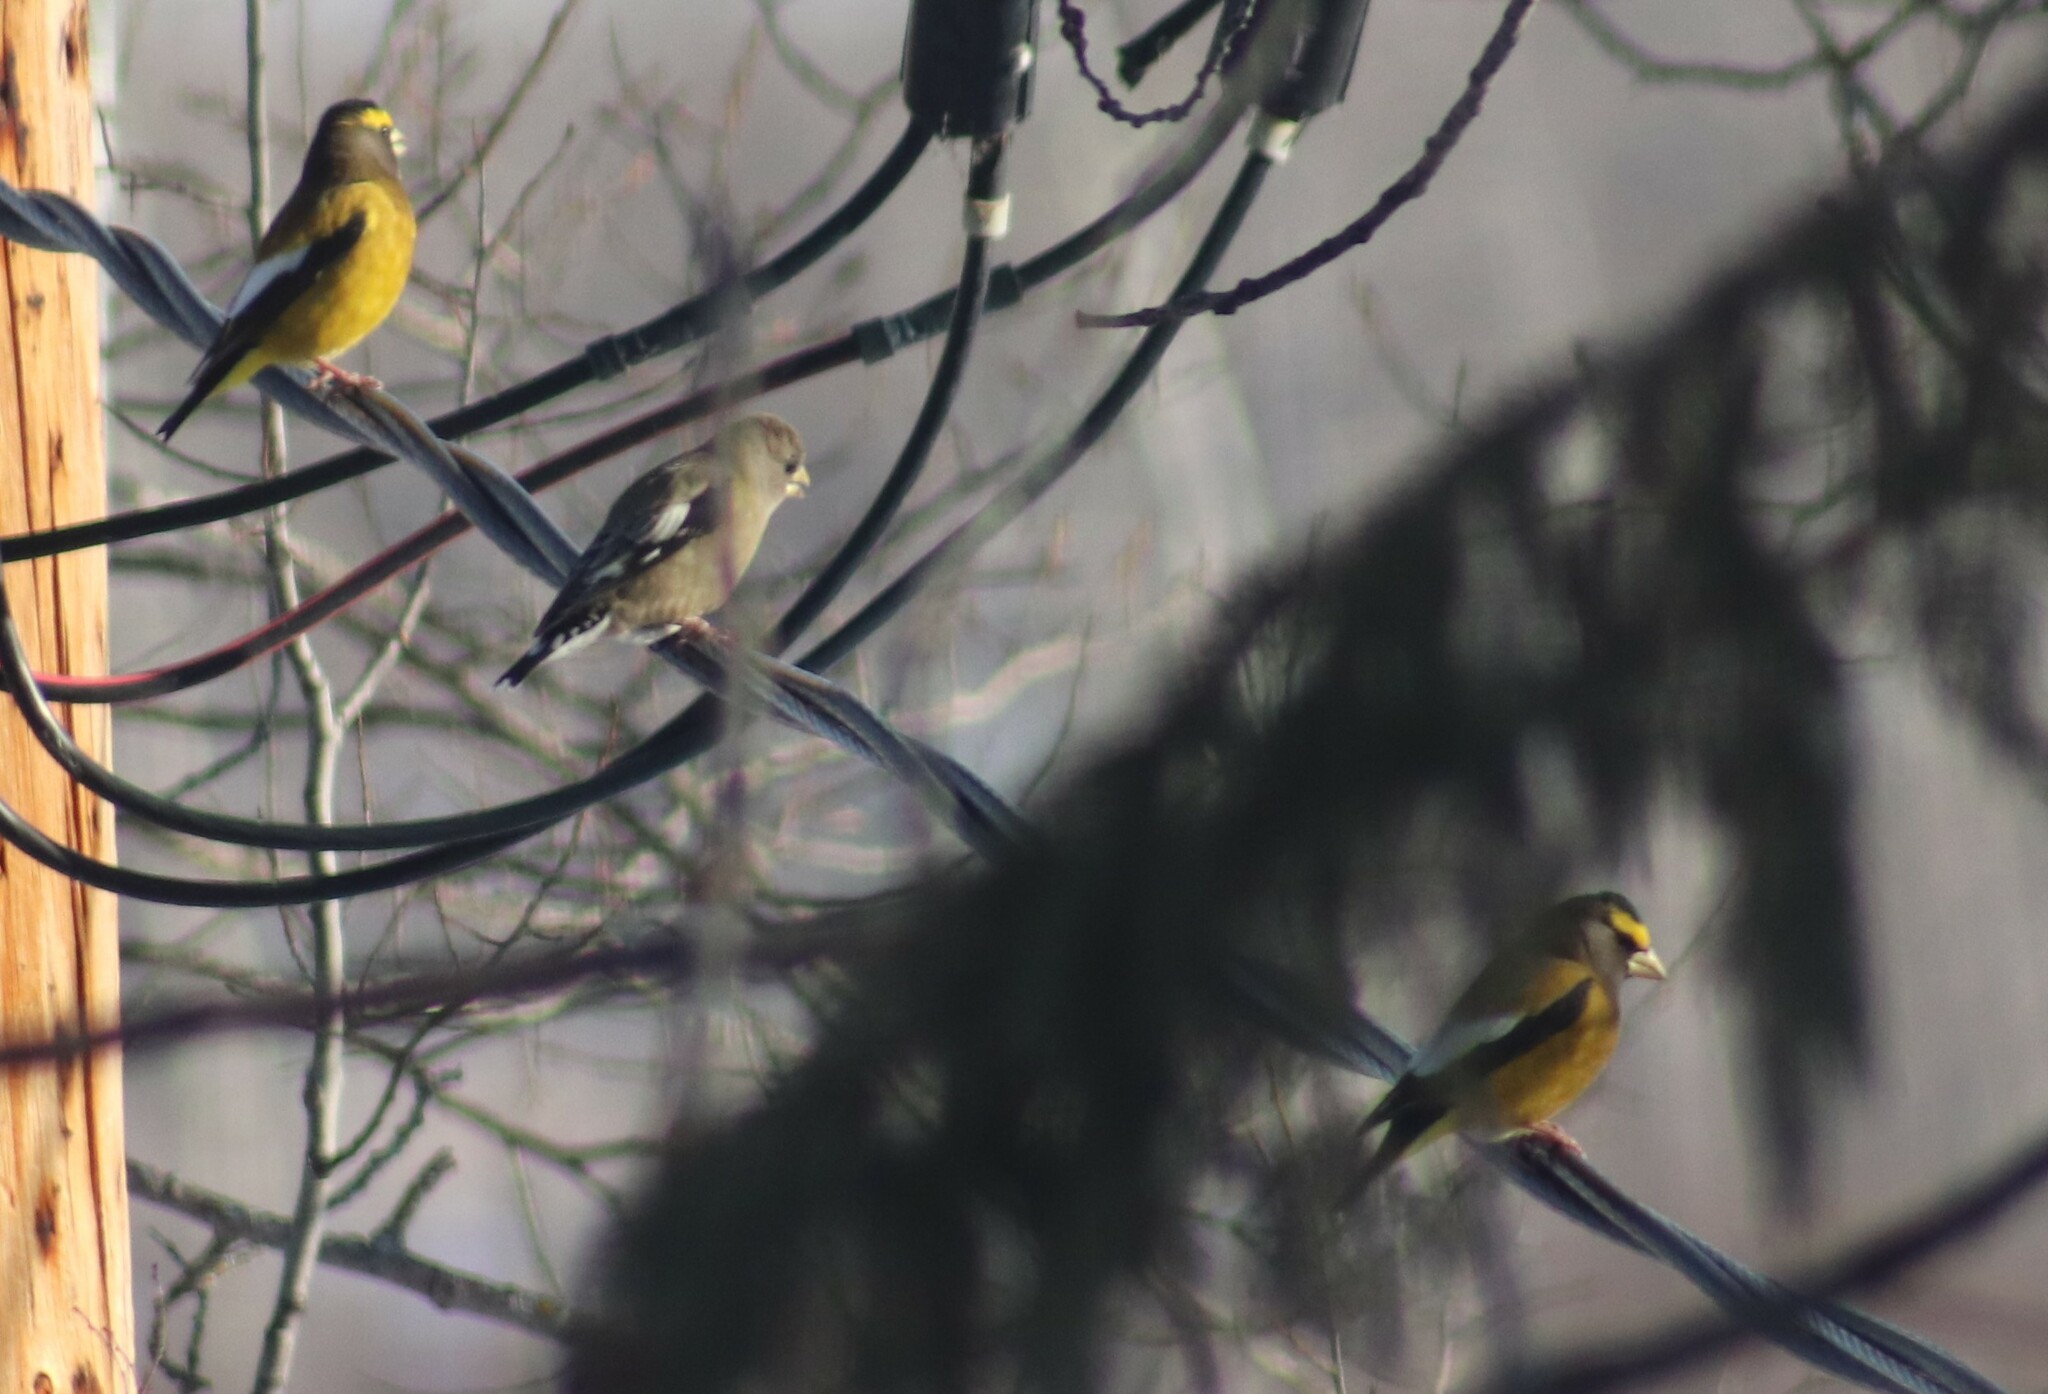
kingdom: Animalia
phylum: Chordata
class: Aves
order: Passeriformes
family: Fringillidae
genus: Hesperiphona
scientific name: Hesperiphona vespertina
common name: Evening grosbeak
